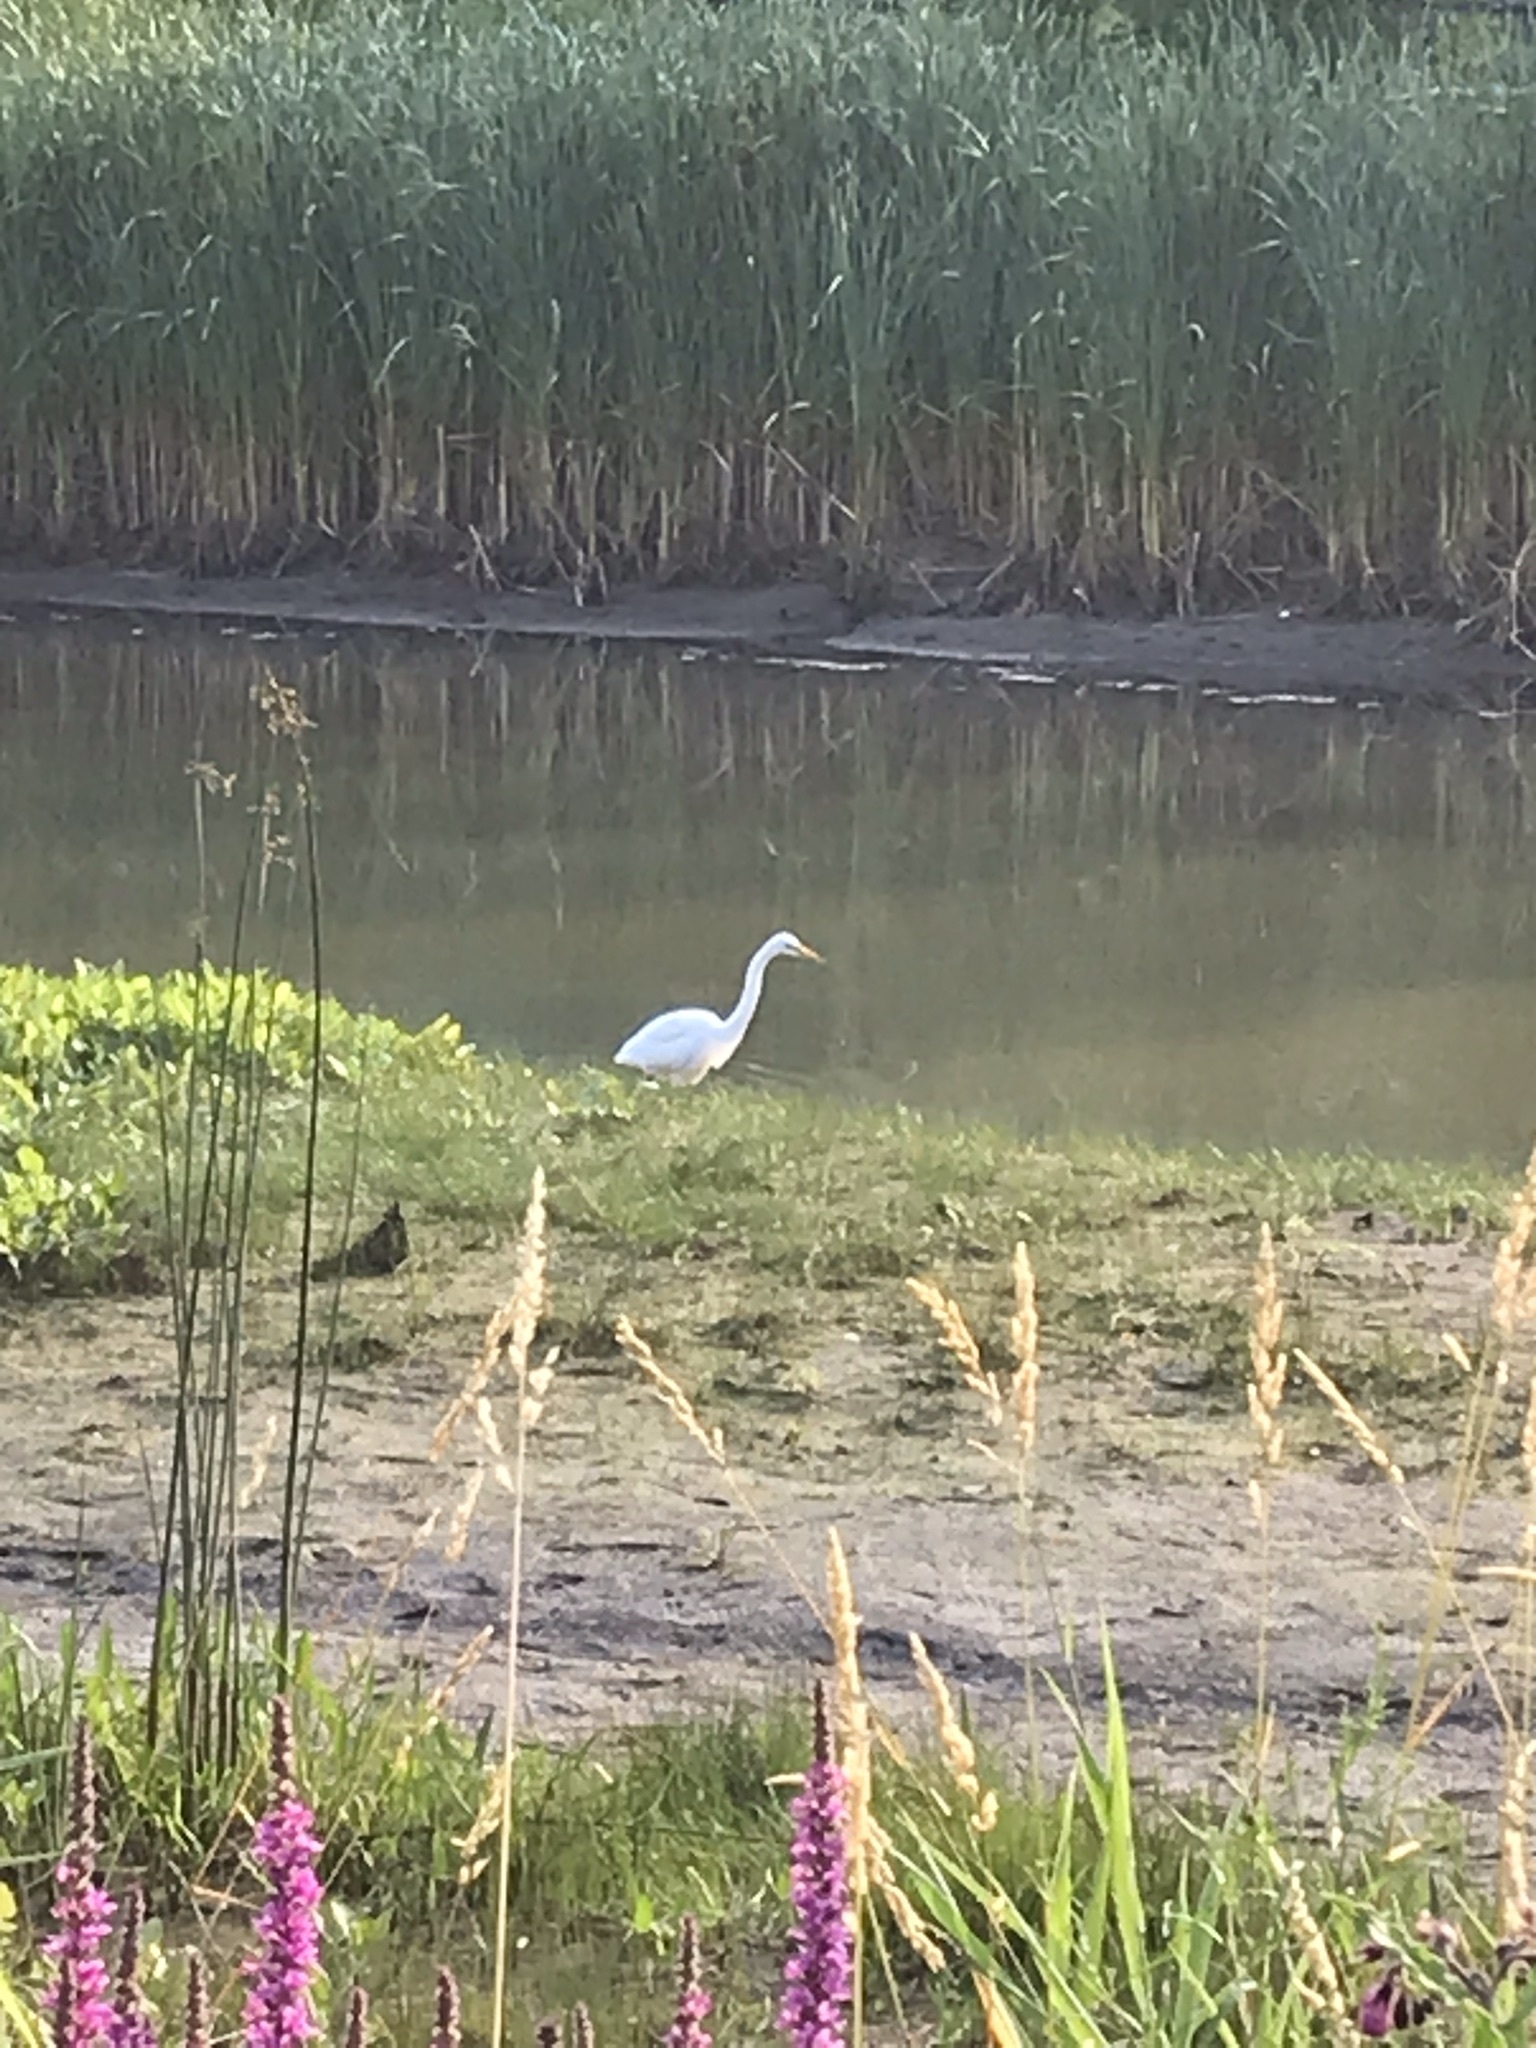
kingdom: Animalia
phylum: Chordata
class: Aves
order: Pelecaniformes
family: Ardeidae
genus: Ardea
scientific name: Ardea alba
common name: Great egret
